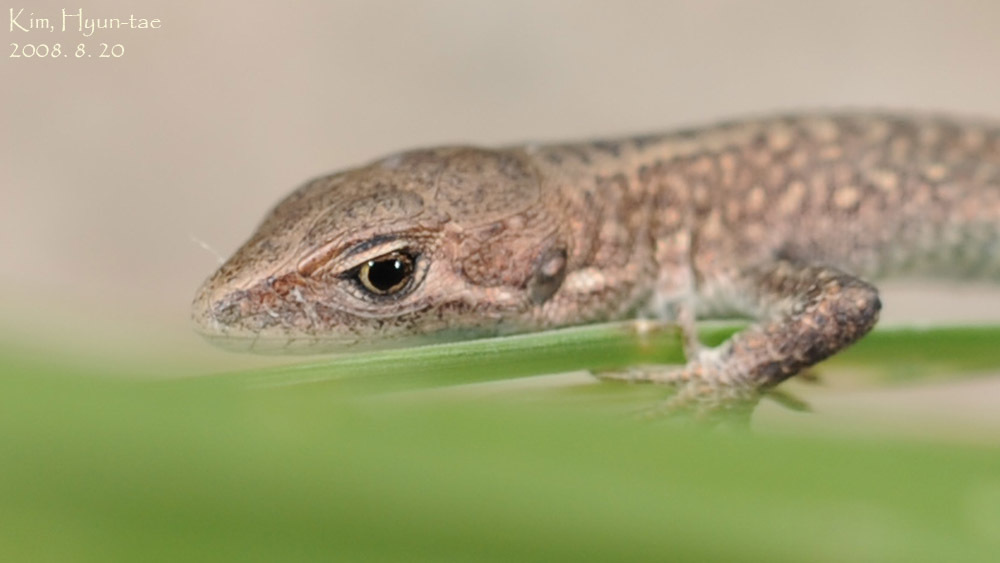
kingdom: Animalia
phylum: Chordata
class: Squamata
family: Lacertidae
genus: Takydromus
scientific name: Takydromus amurensis
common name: Amur grass lizard
